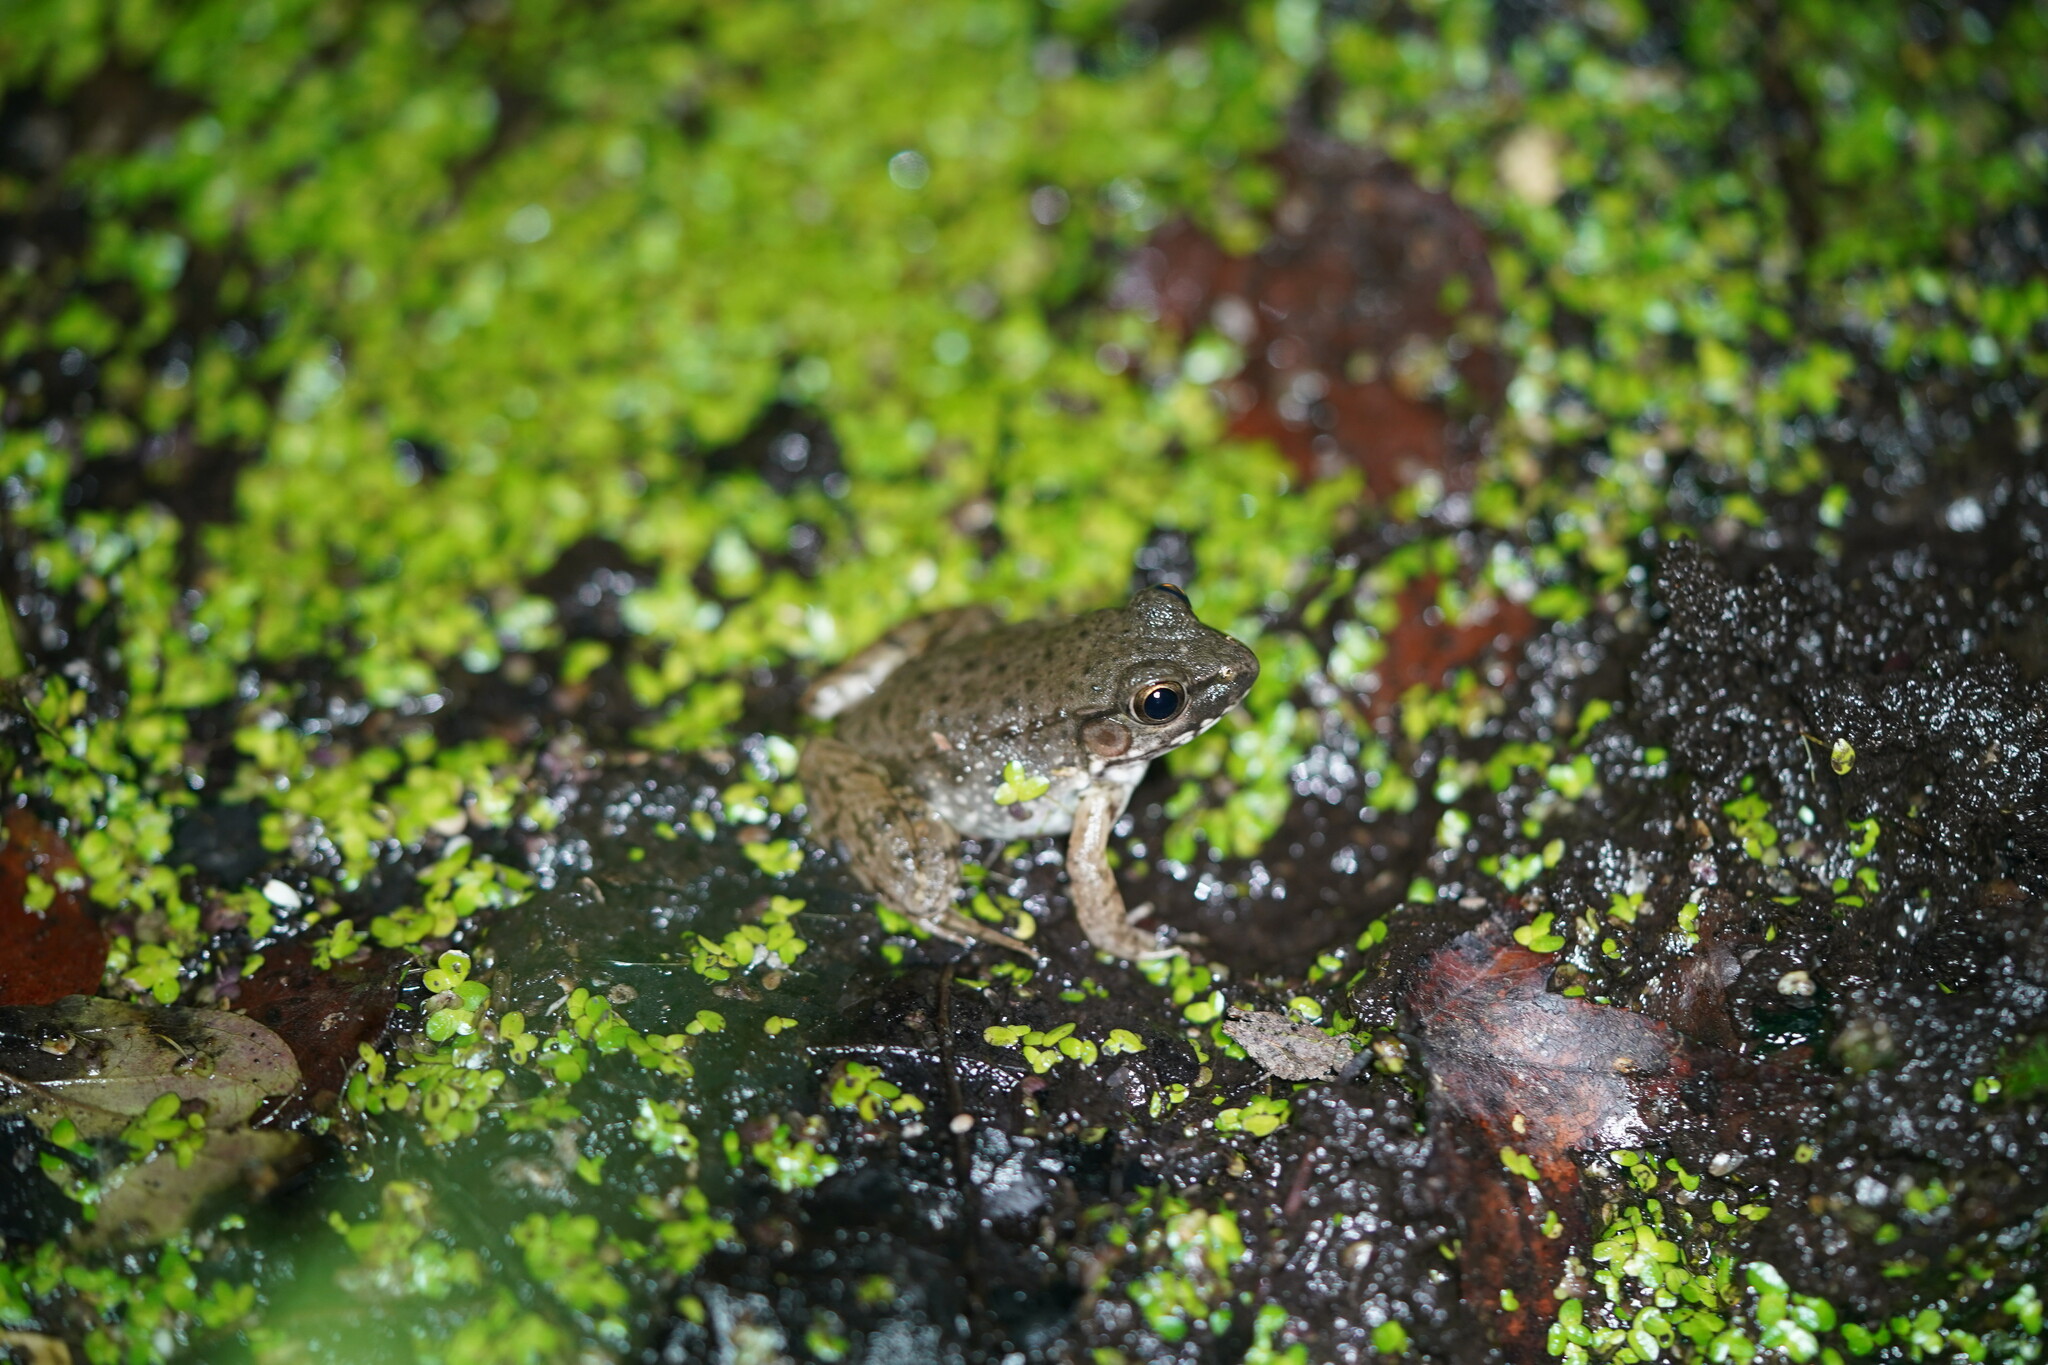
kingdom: Animalia
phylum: Chordata
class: Amphibia
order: Anura
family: Ranidae
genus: Lithobates
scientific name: Lithobates clamitans
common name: Green frog
